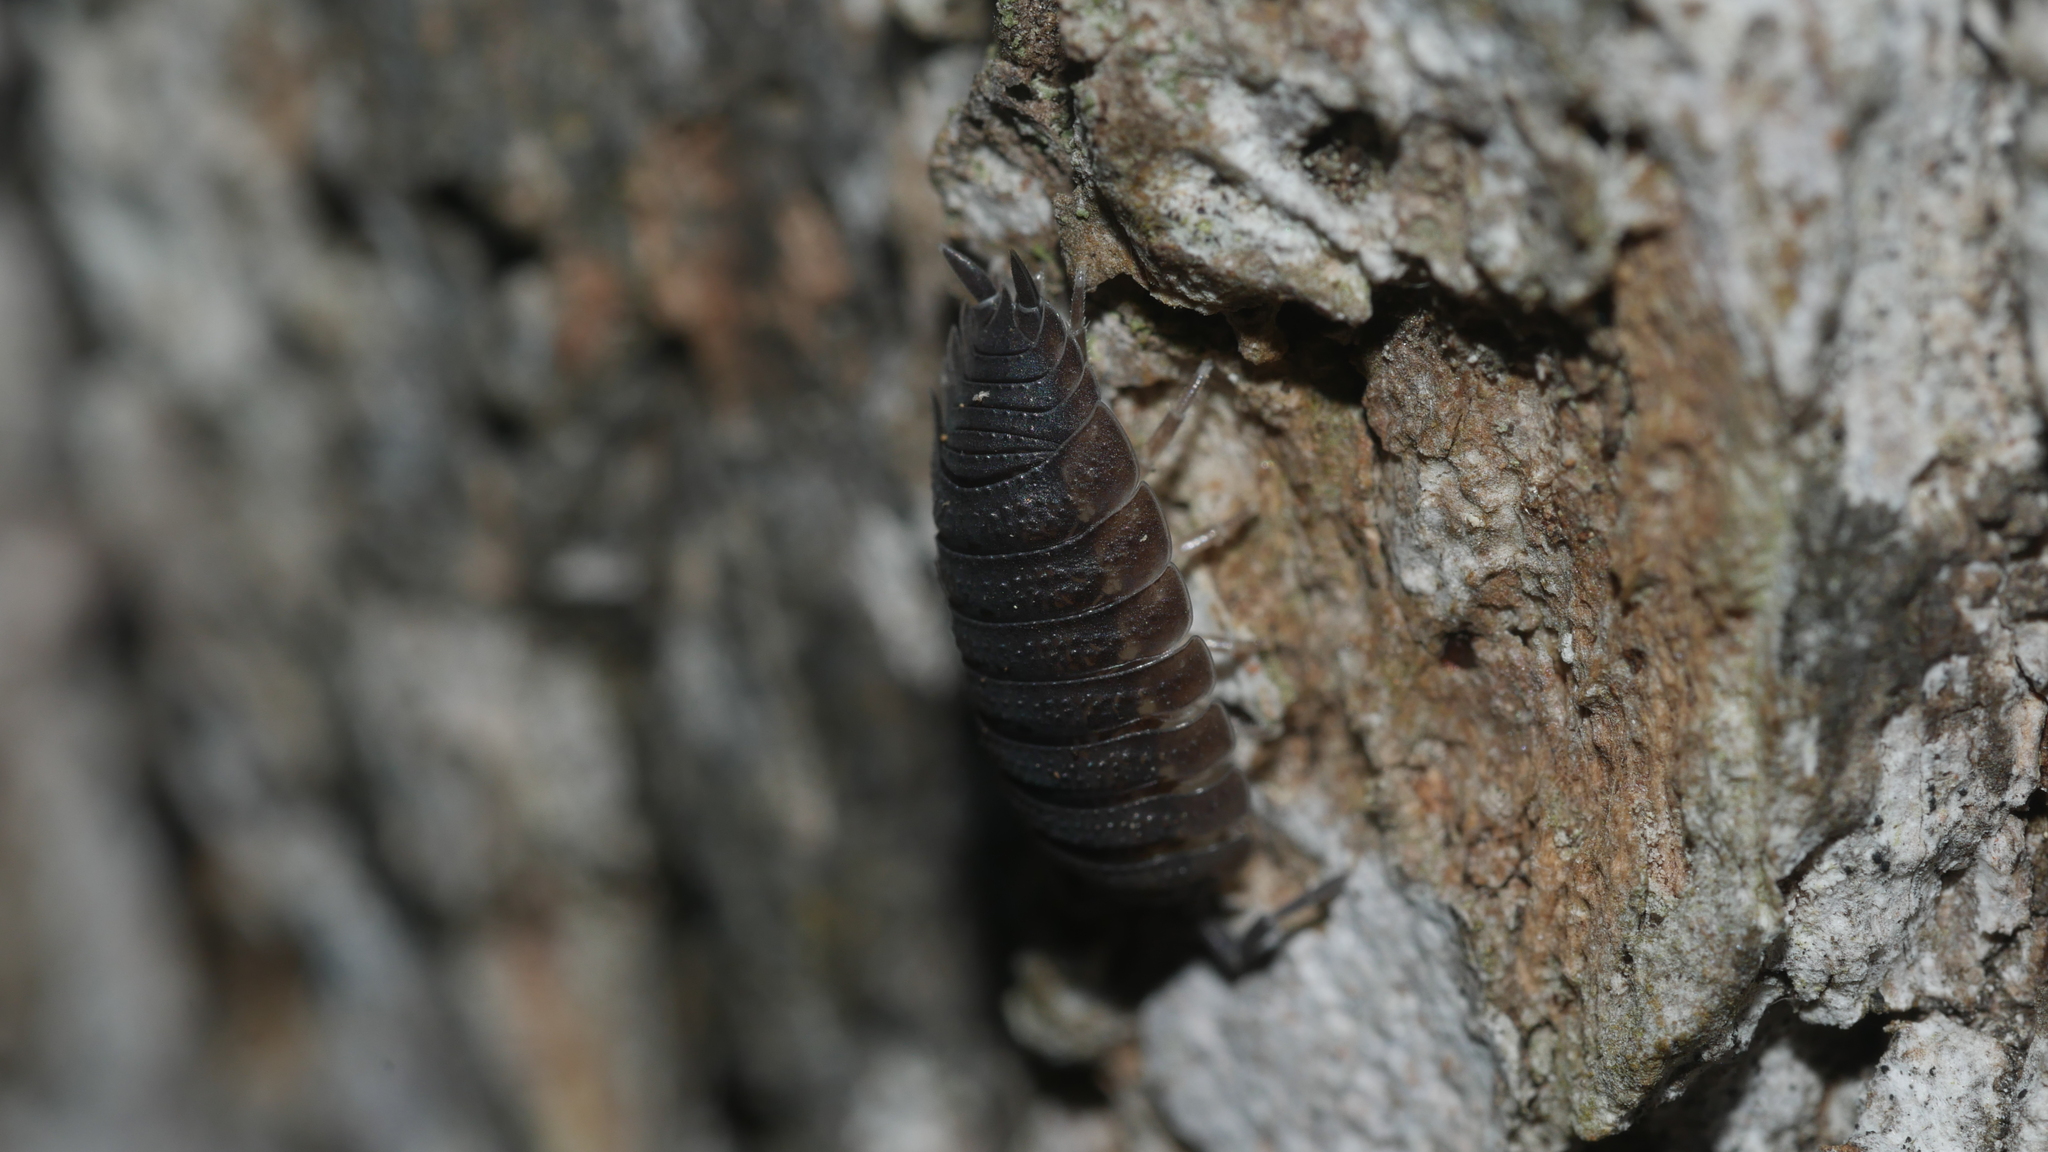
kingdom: Animalia
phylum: Arthropoda
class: Malacostraca
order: Isopoda
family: Porcellionidae
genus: Porcellio
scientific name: Porcellio scaber
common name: Common rough woodlouse
